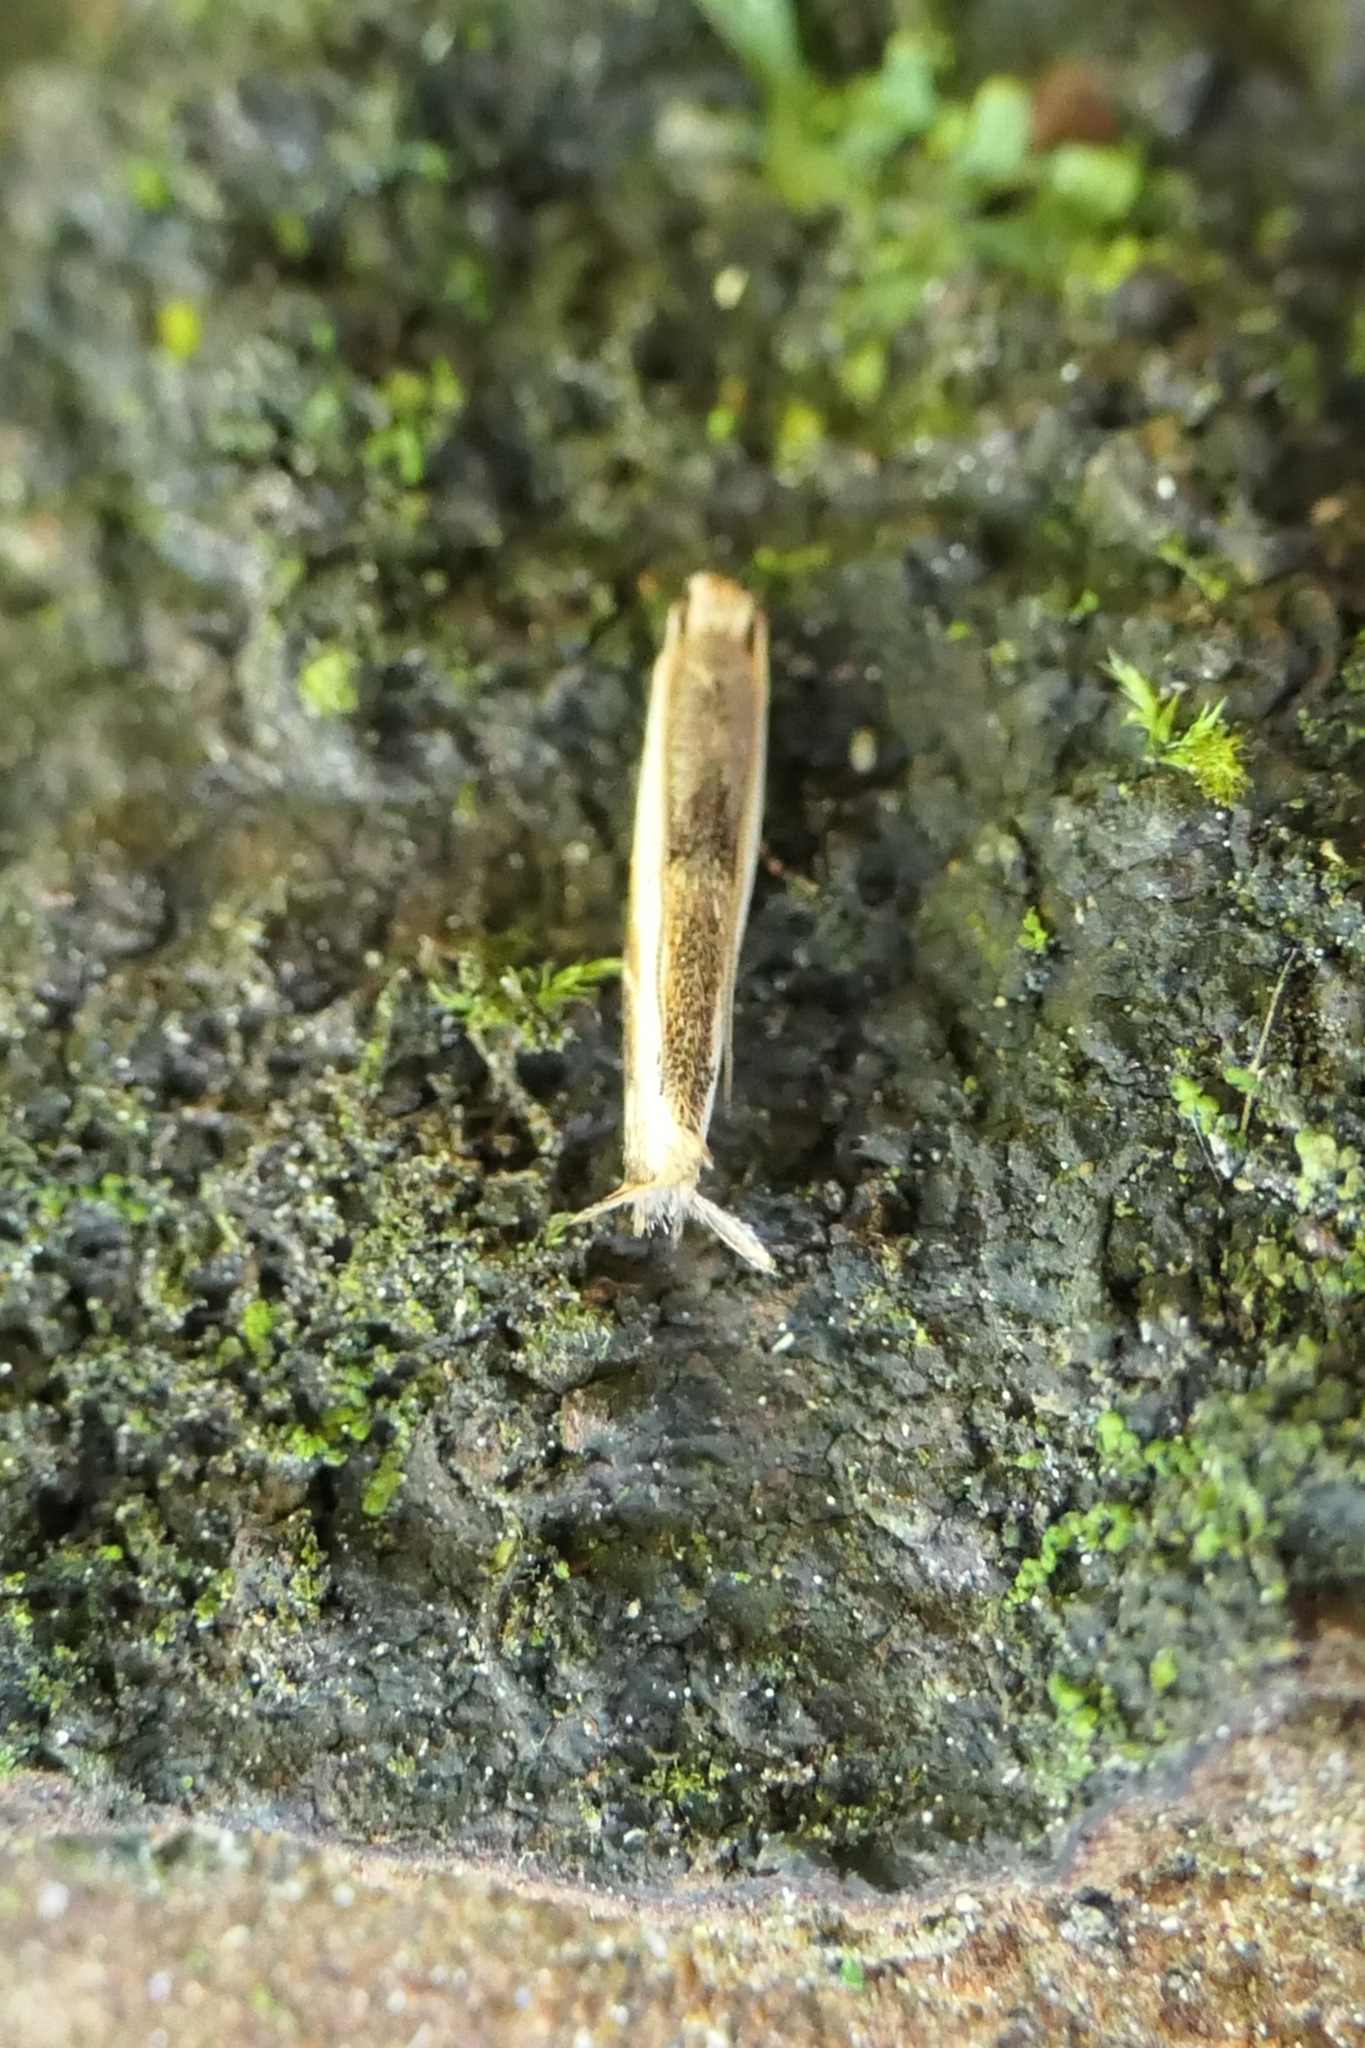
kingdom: Animalia
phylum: Arthropoda
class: Insecta
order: Lepidoptera
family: Tineidae
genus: Erechthias
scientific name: Erechthias charadrota
